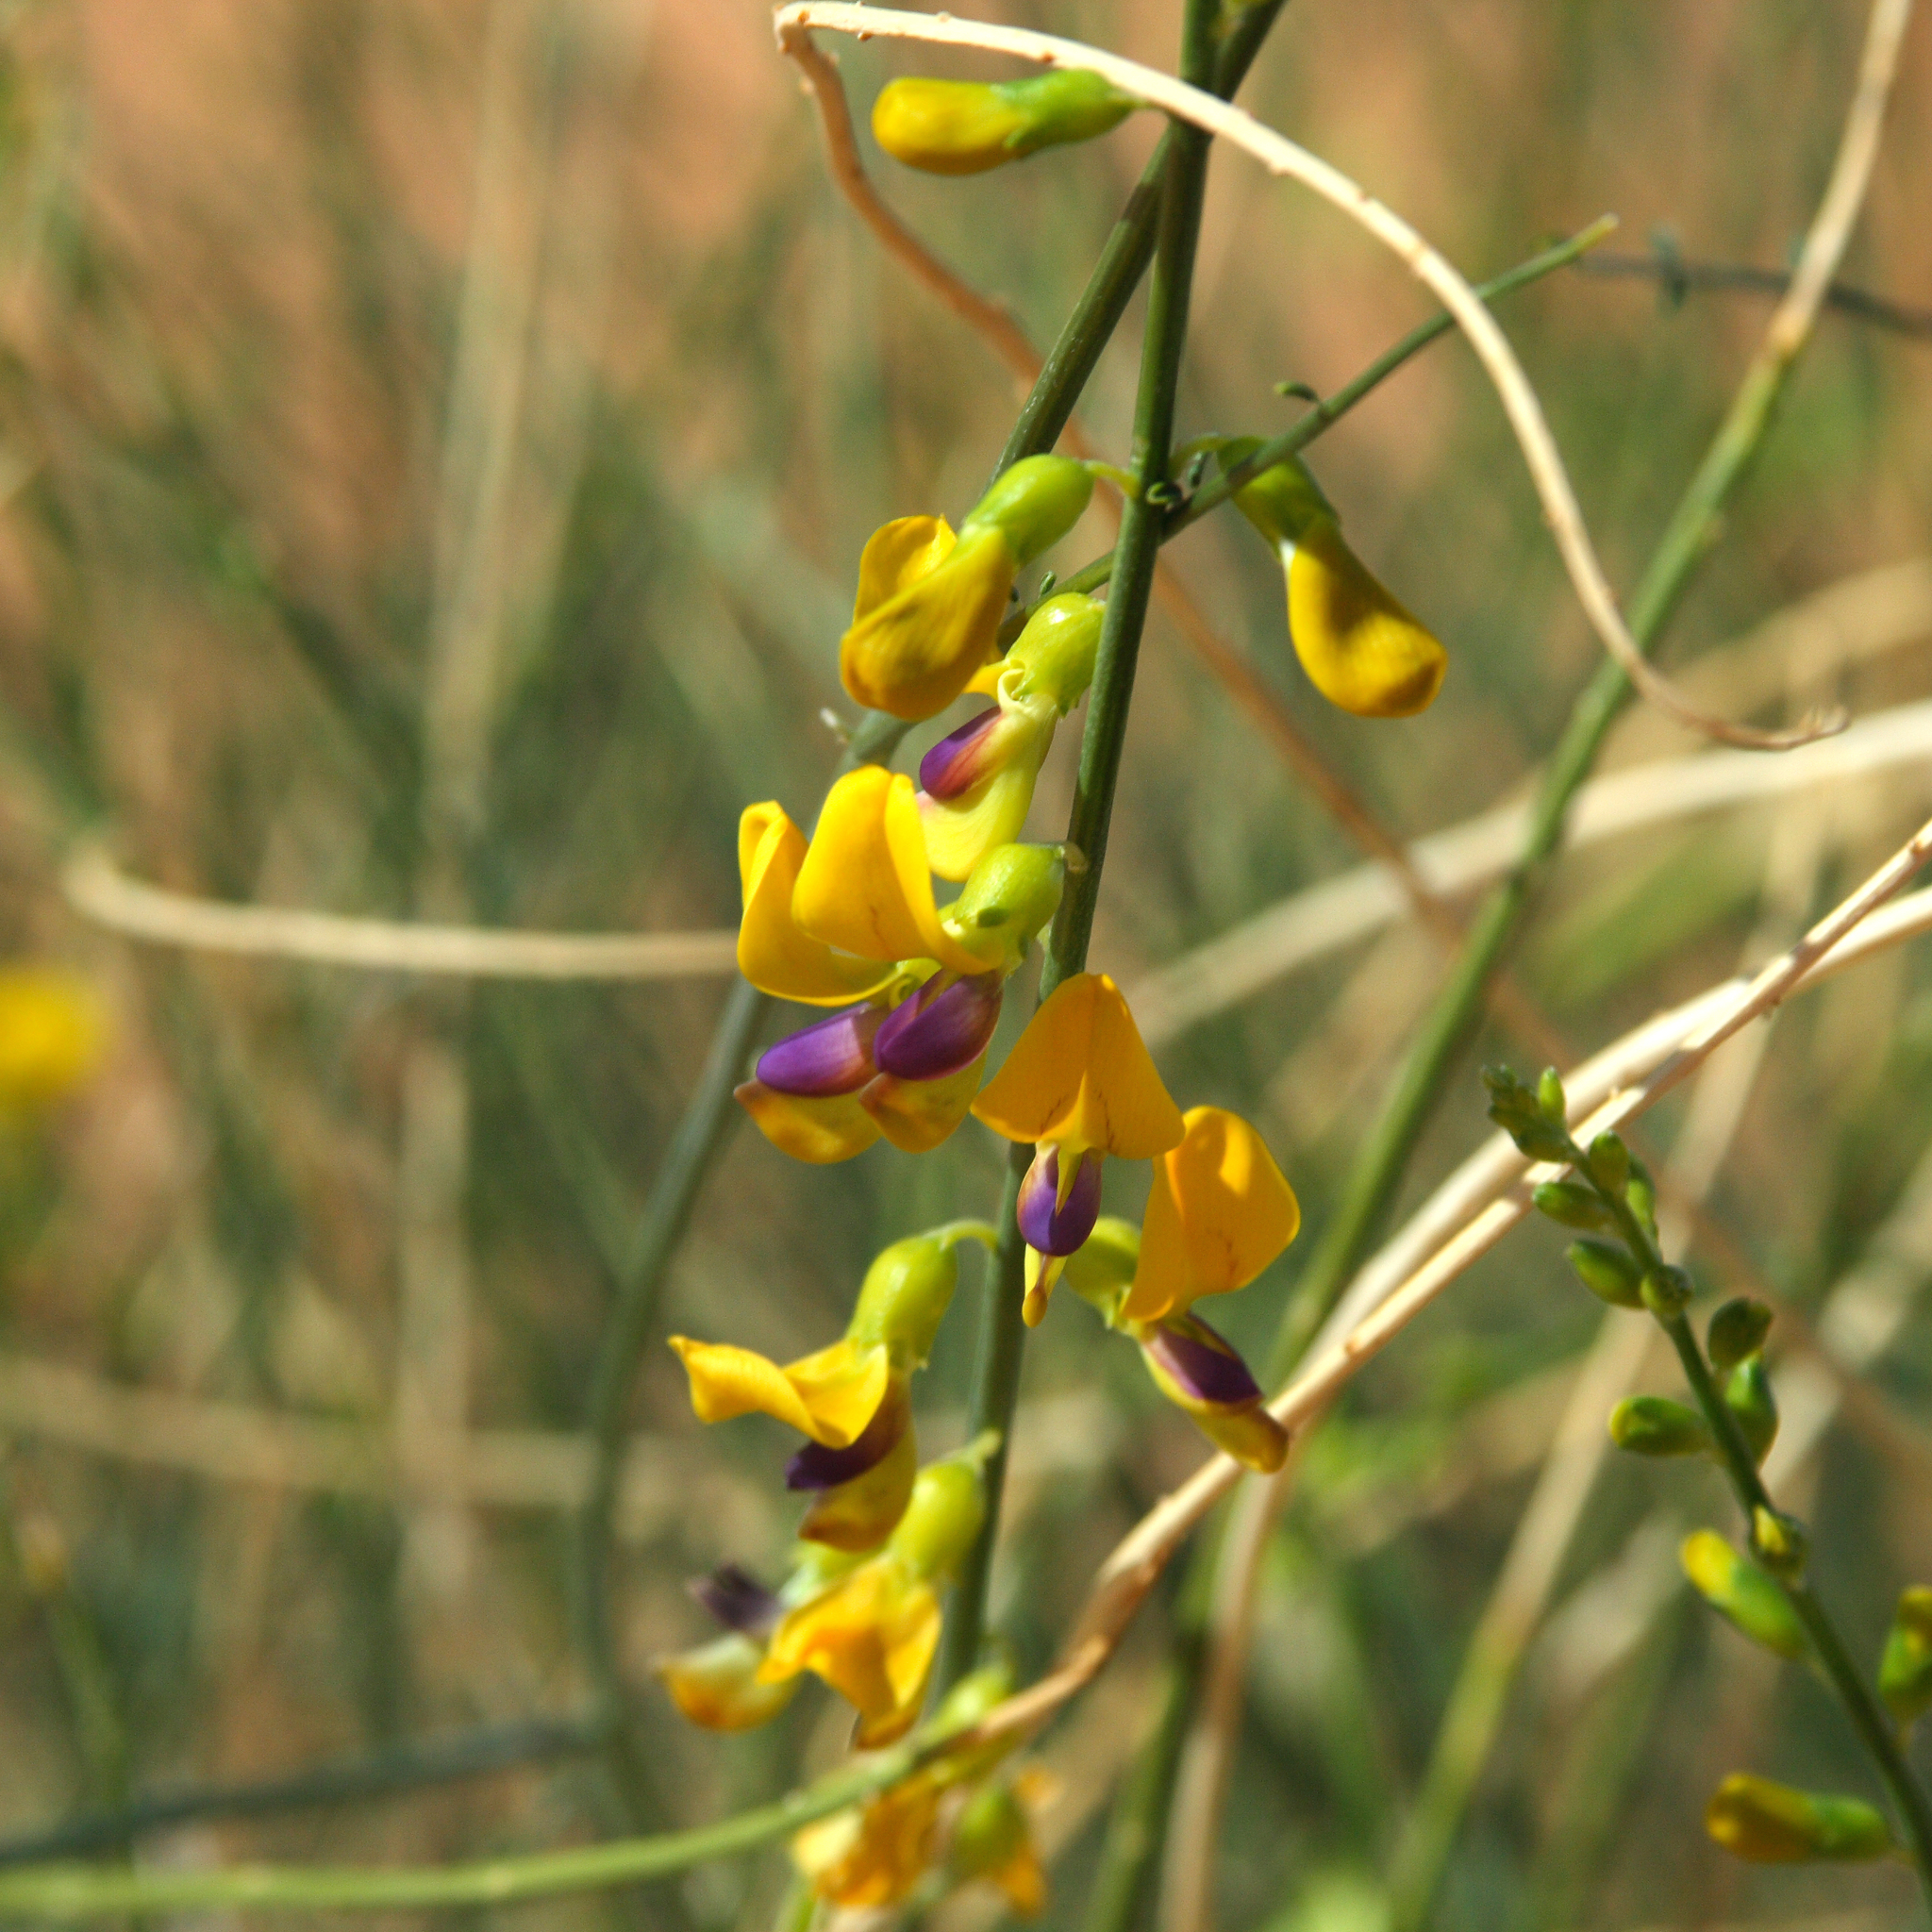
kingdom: Plantae
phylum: Tracheophyta
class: Magnoliopsida
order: Fabales
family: Fabaceae
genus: Swainsona
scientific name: Swainsona laxa
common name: Yellow darling pea
